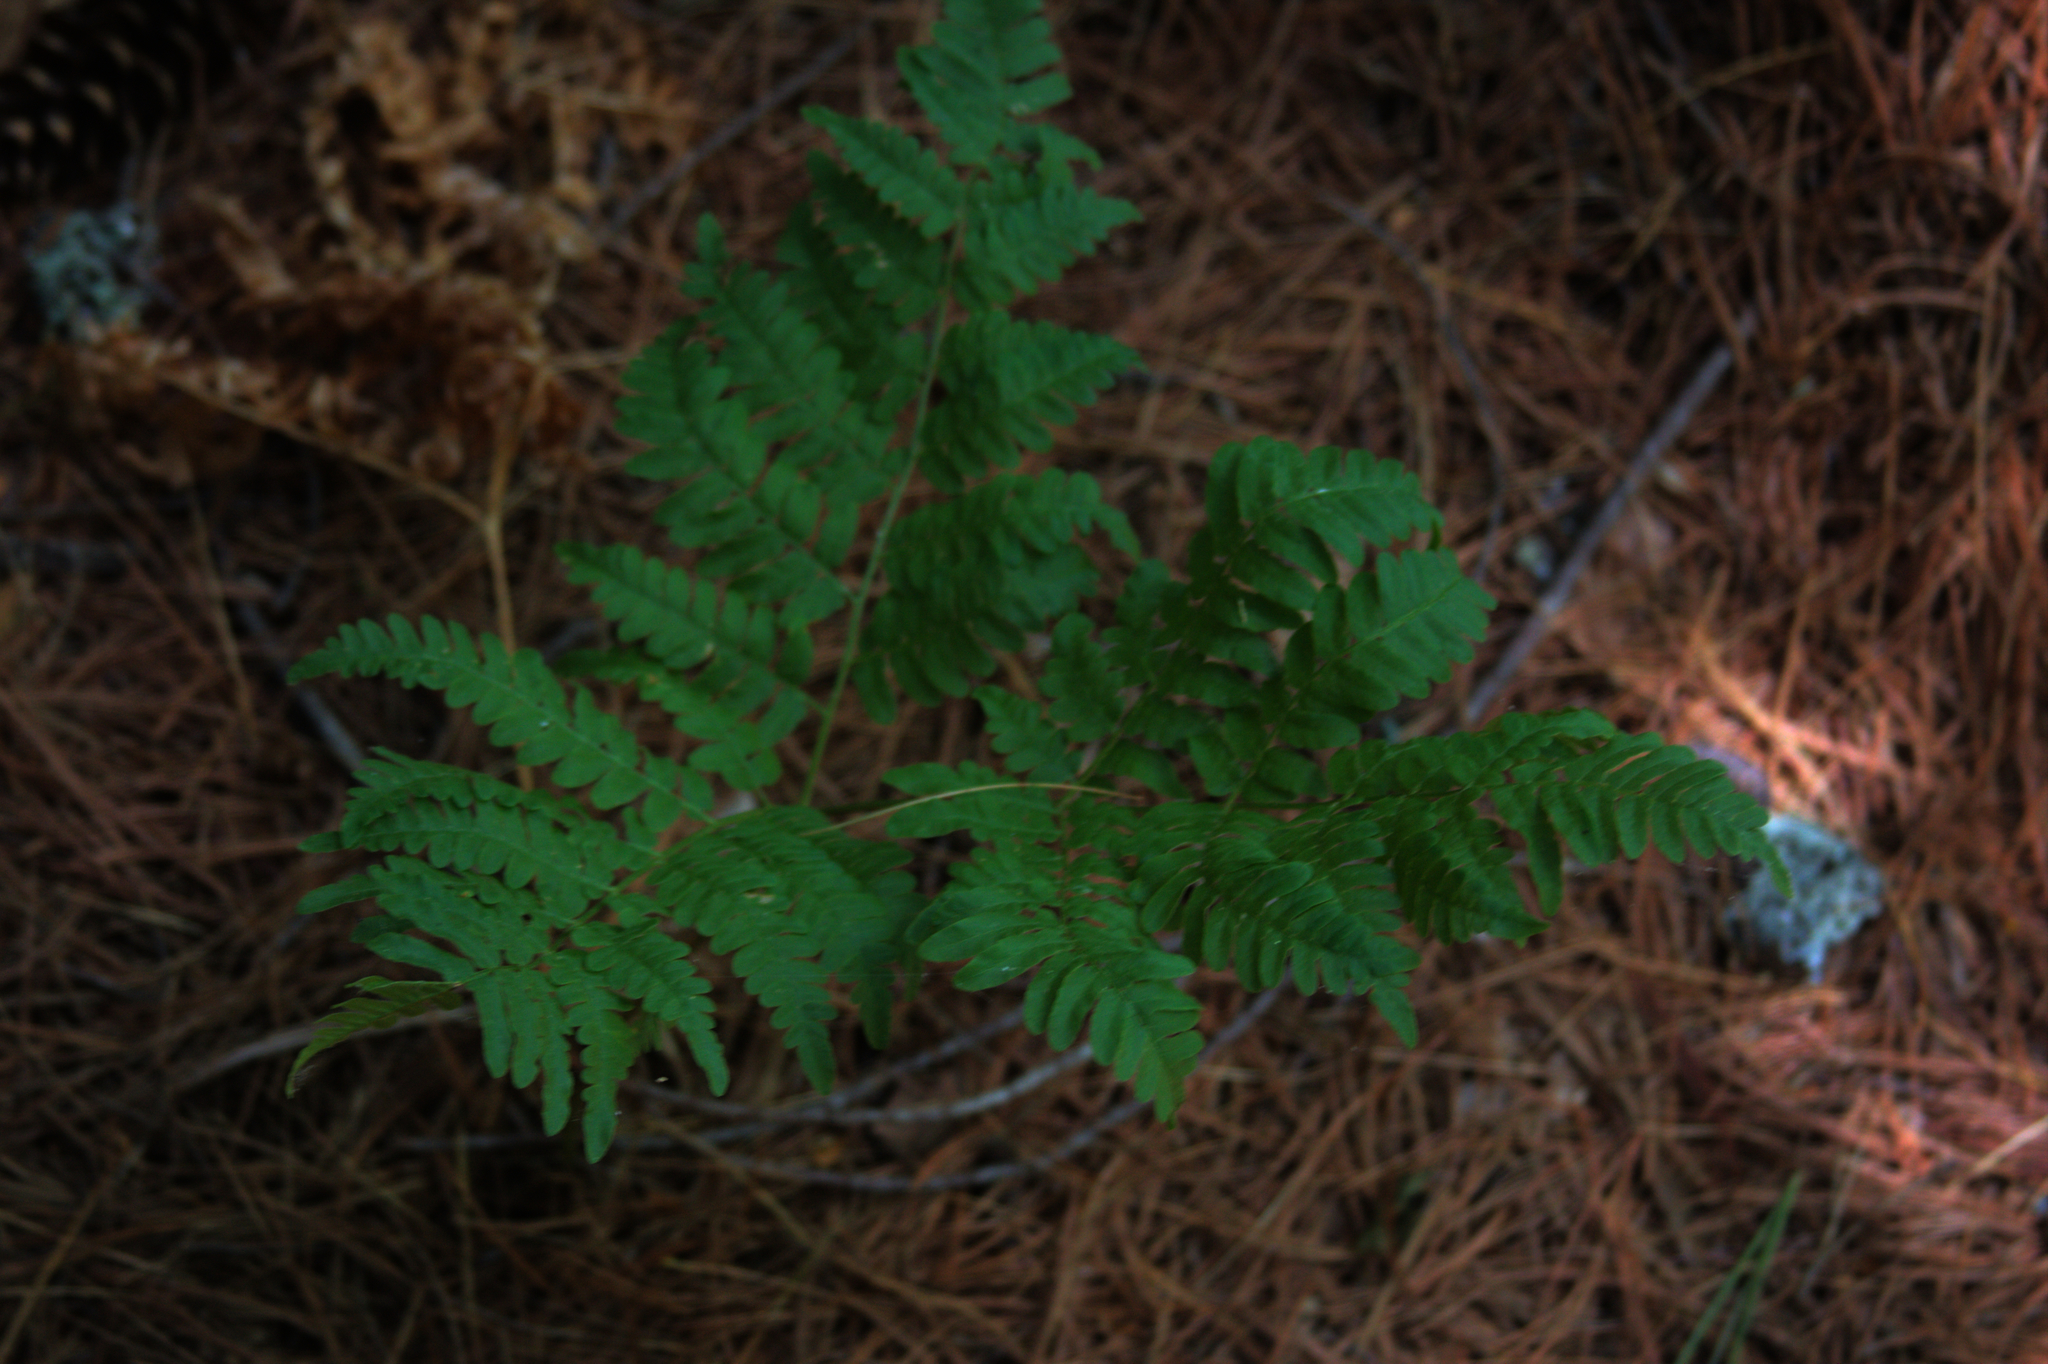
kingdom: Plantae
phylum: Tracheophyta
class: Polypodiopsida
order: Polypodiales
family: Dennstaedtiaceae
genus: Pteridium
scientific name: Pteridium aquilinum
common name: Bracken
